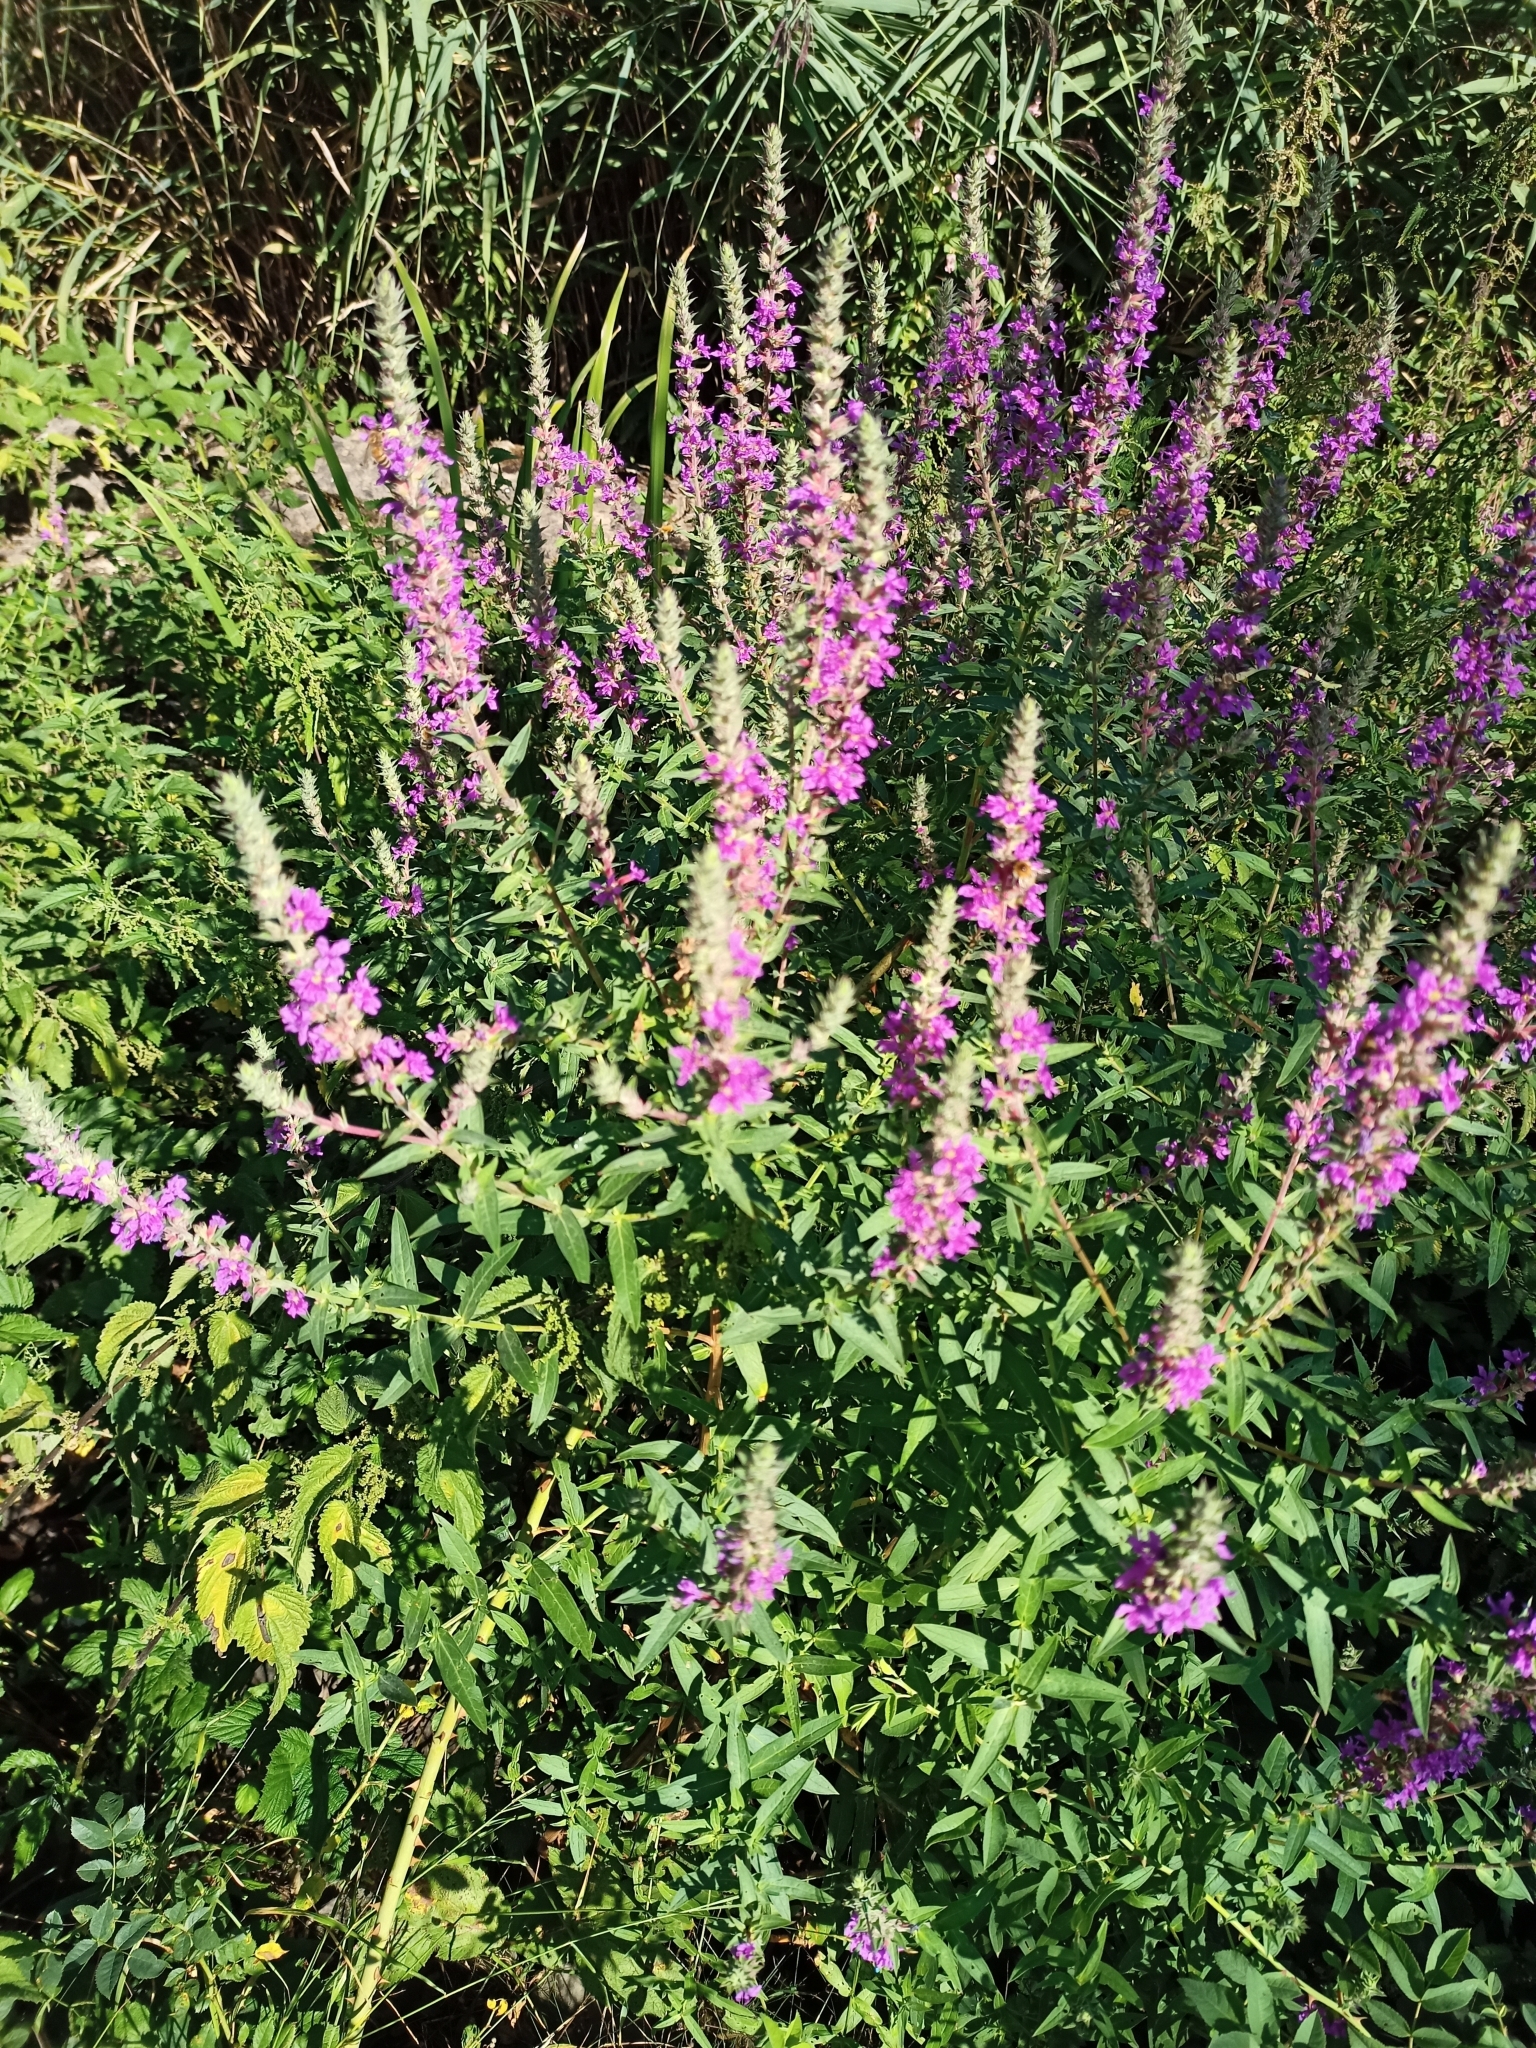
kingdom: Plantae
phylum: Tracheophyta
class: Magnoliopsida
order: Myrtales
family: Lythraceae
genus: Lythrum
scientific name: Lythrum salicaria
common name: Purple loosestrife
